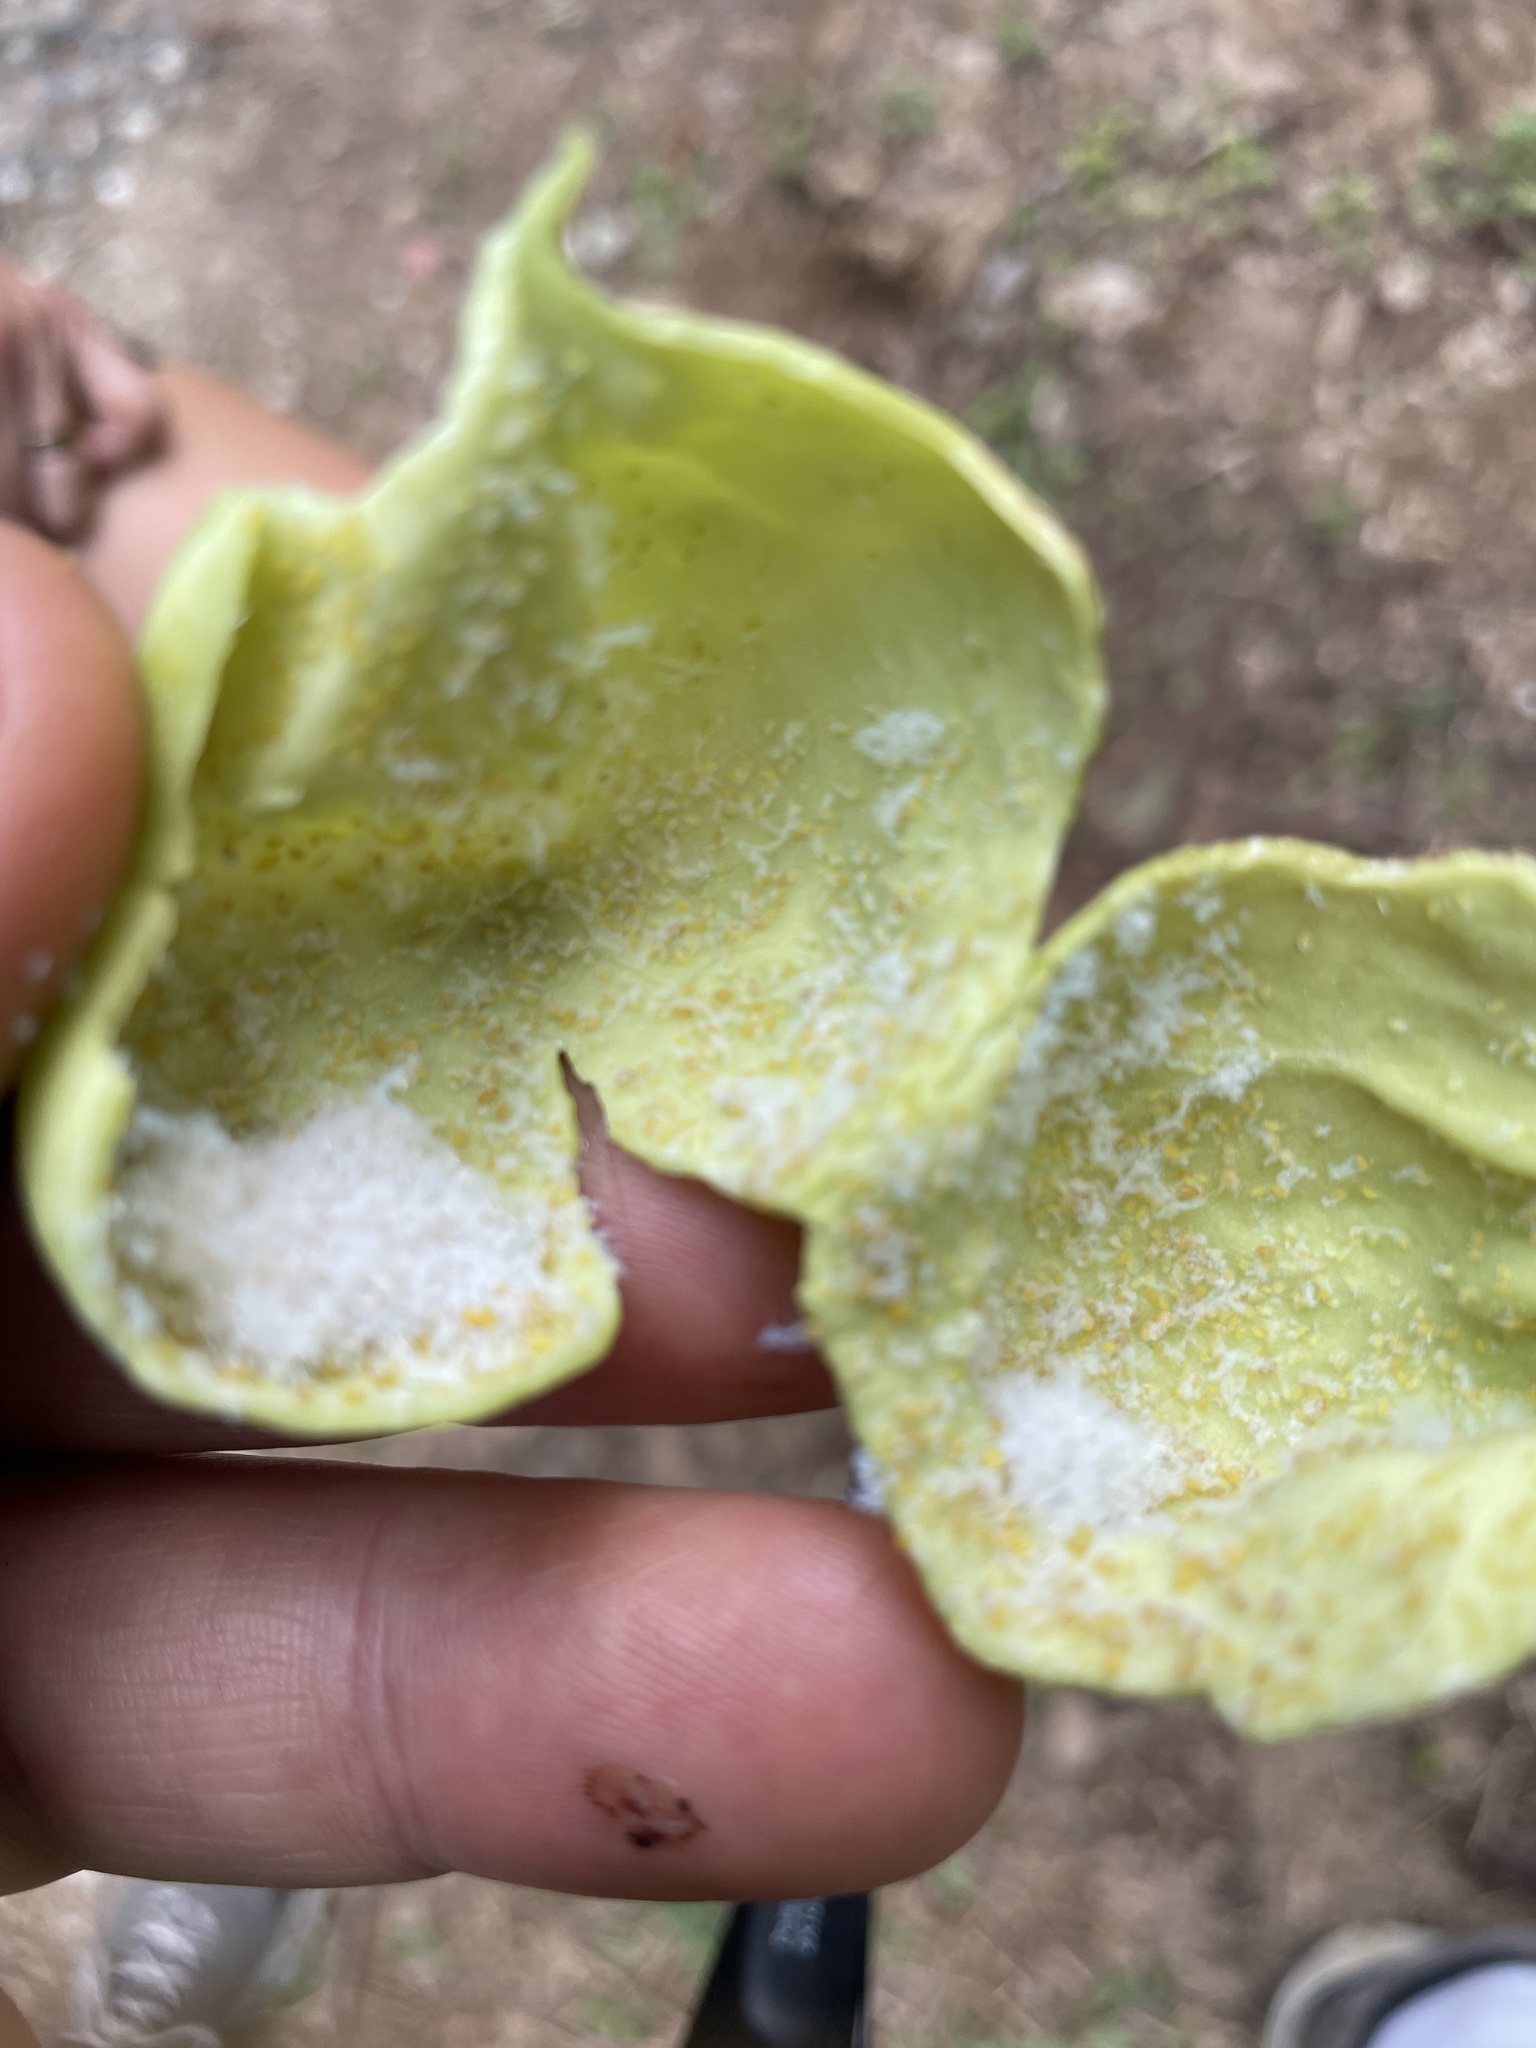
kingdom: Animalia
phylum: Arthropoda
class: Insecta
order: Hemiptera
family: Aphididae
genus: Melaphis
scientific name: Melaphis rhois
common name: Sumac gall aphid
